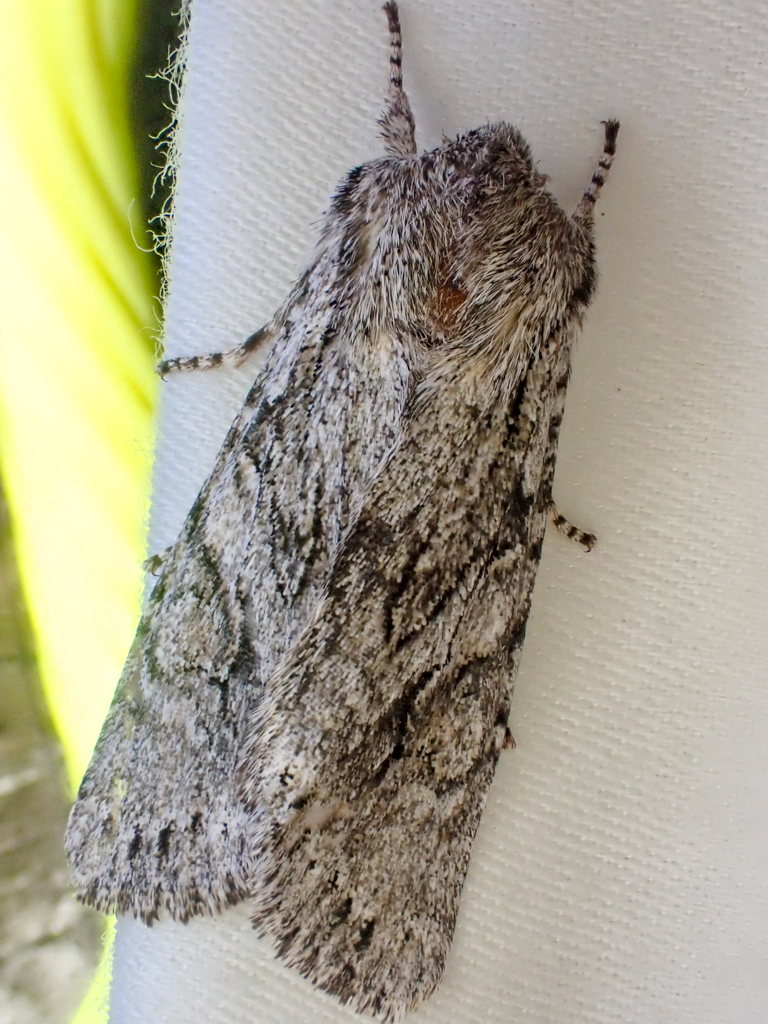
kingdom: Animalia
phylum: Arthropoda
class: Insecta
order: Lepidoptera
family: Noctuidae
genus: Egira
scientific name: Egira simplex
